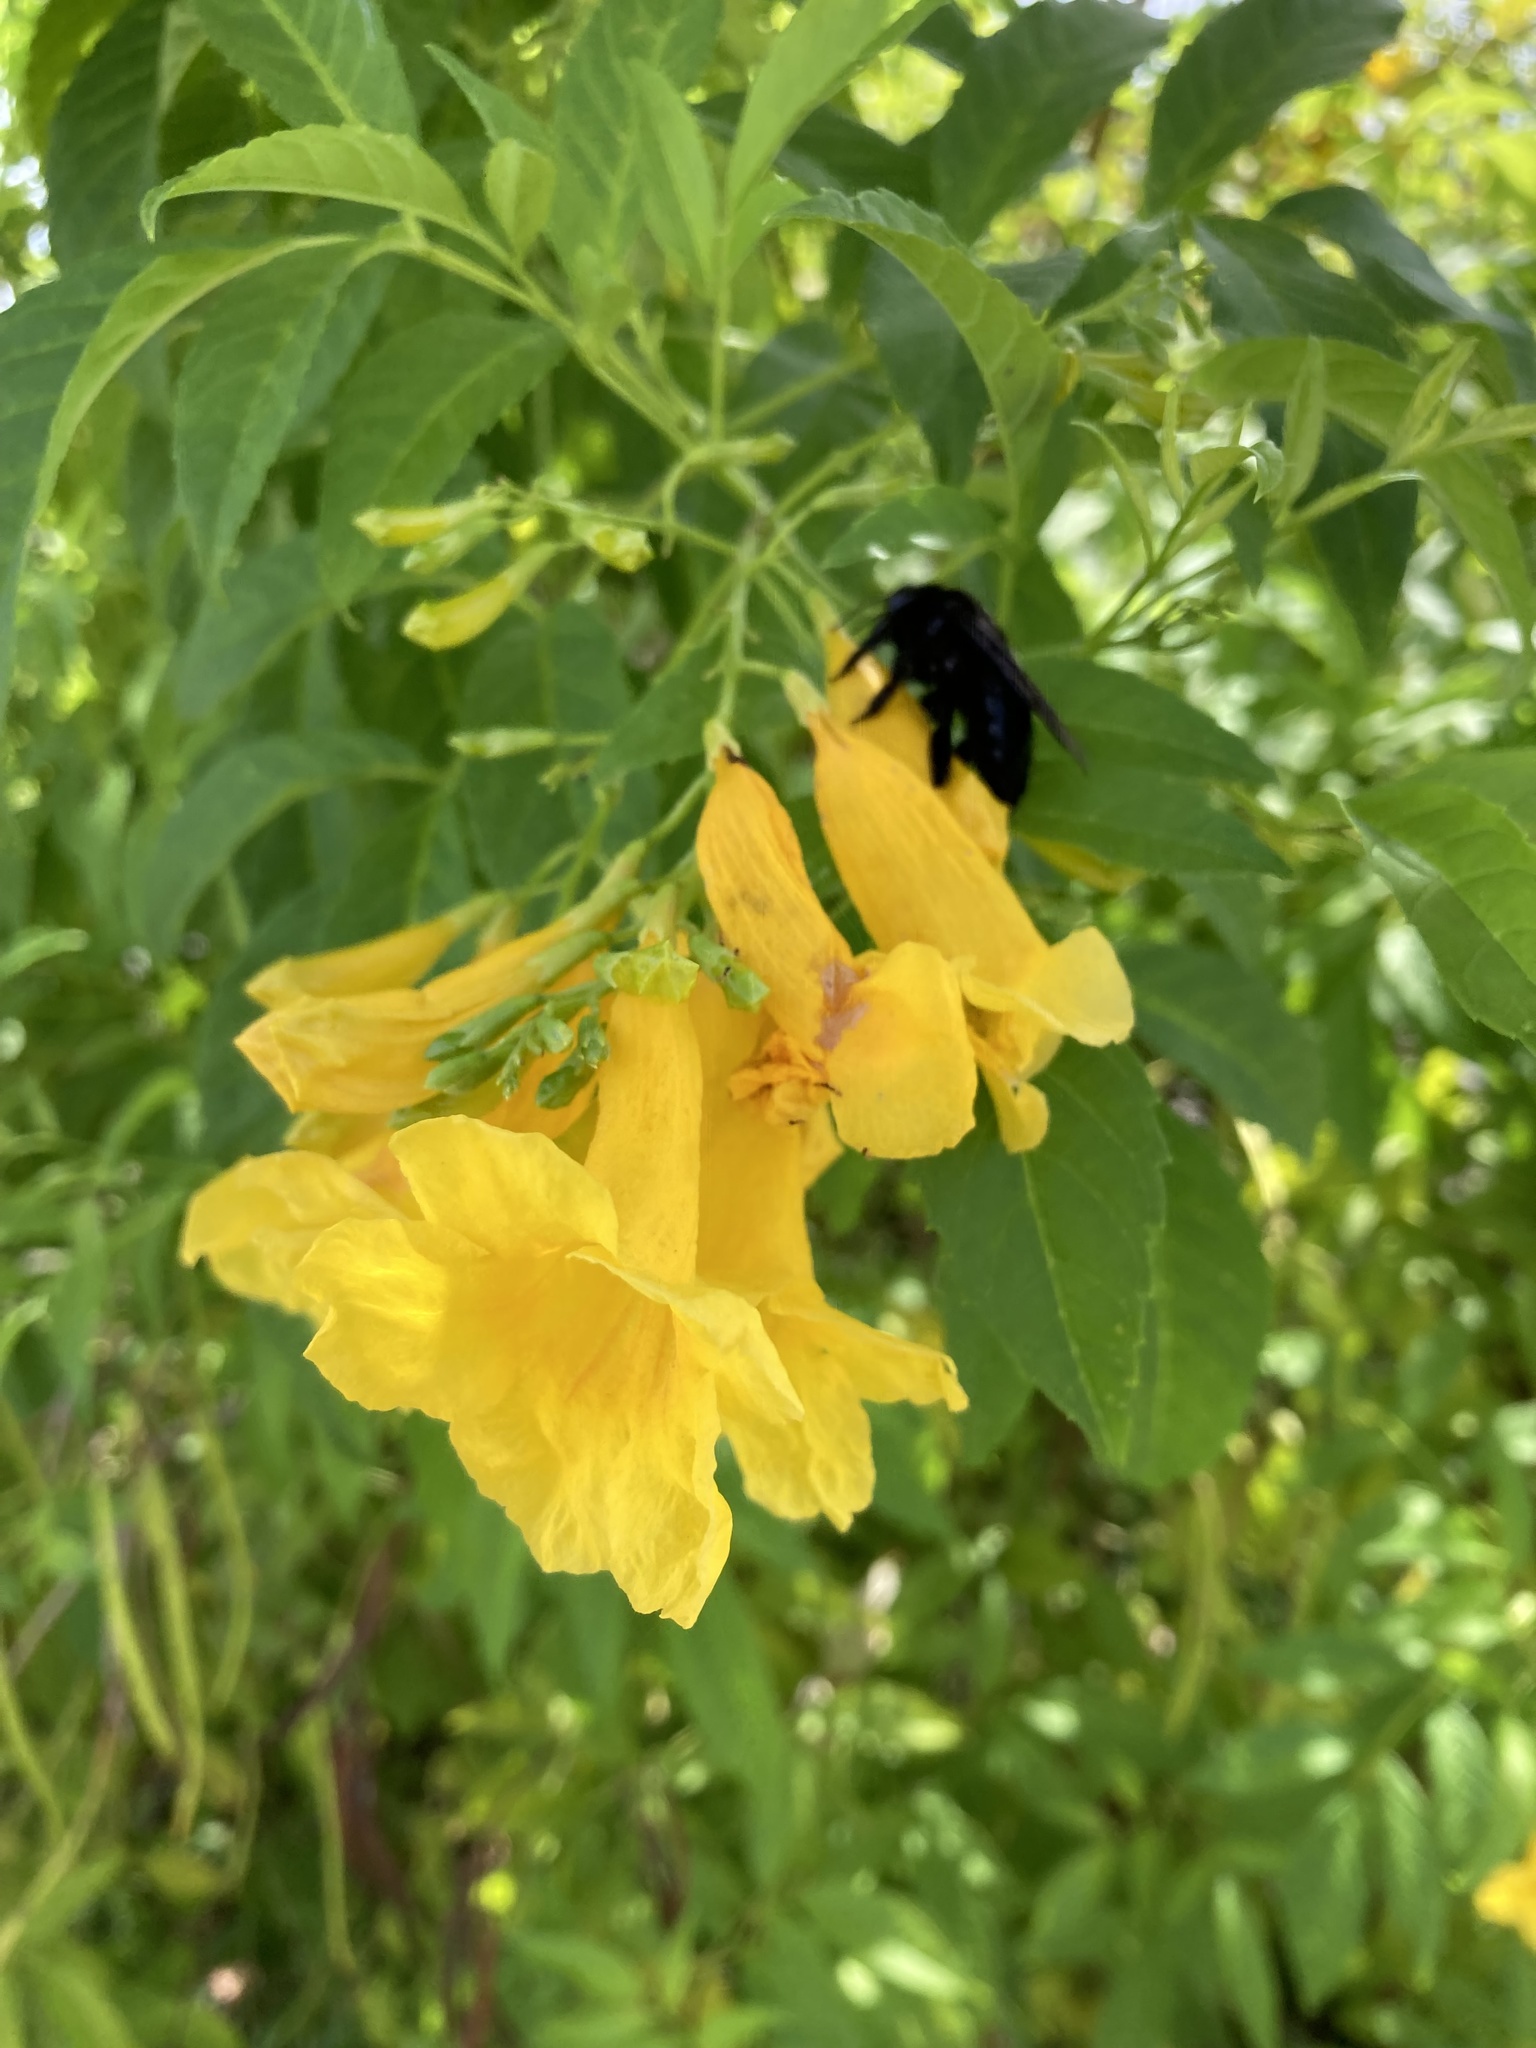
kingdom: Animalia
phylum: Arthropoda
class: Insecta
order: Hymenoptera
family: Apidae
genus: Xylocopa
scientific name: Xylocopa mordax
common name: Antillean carpenter bee
